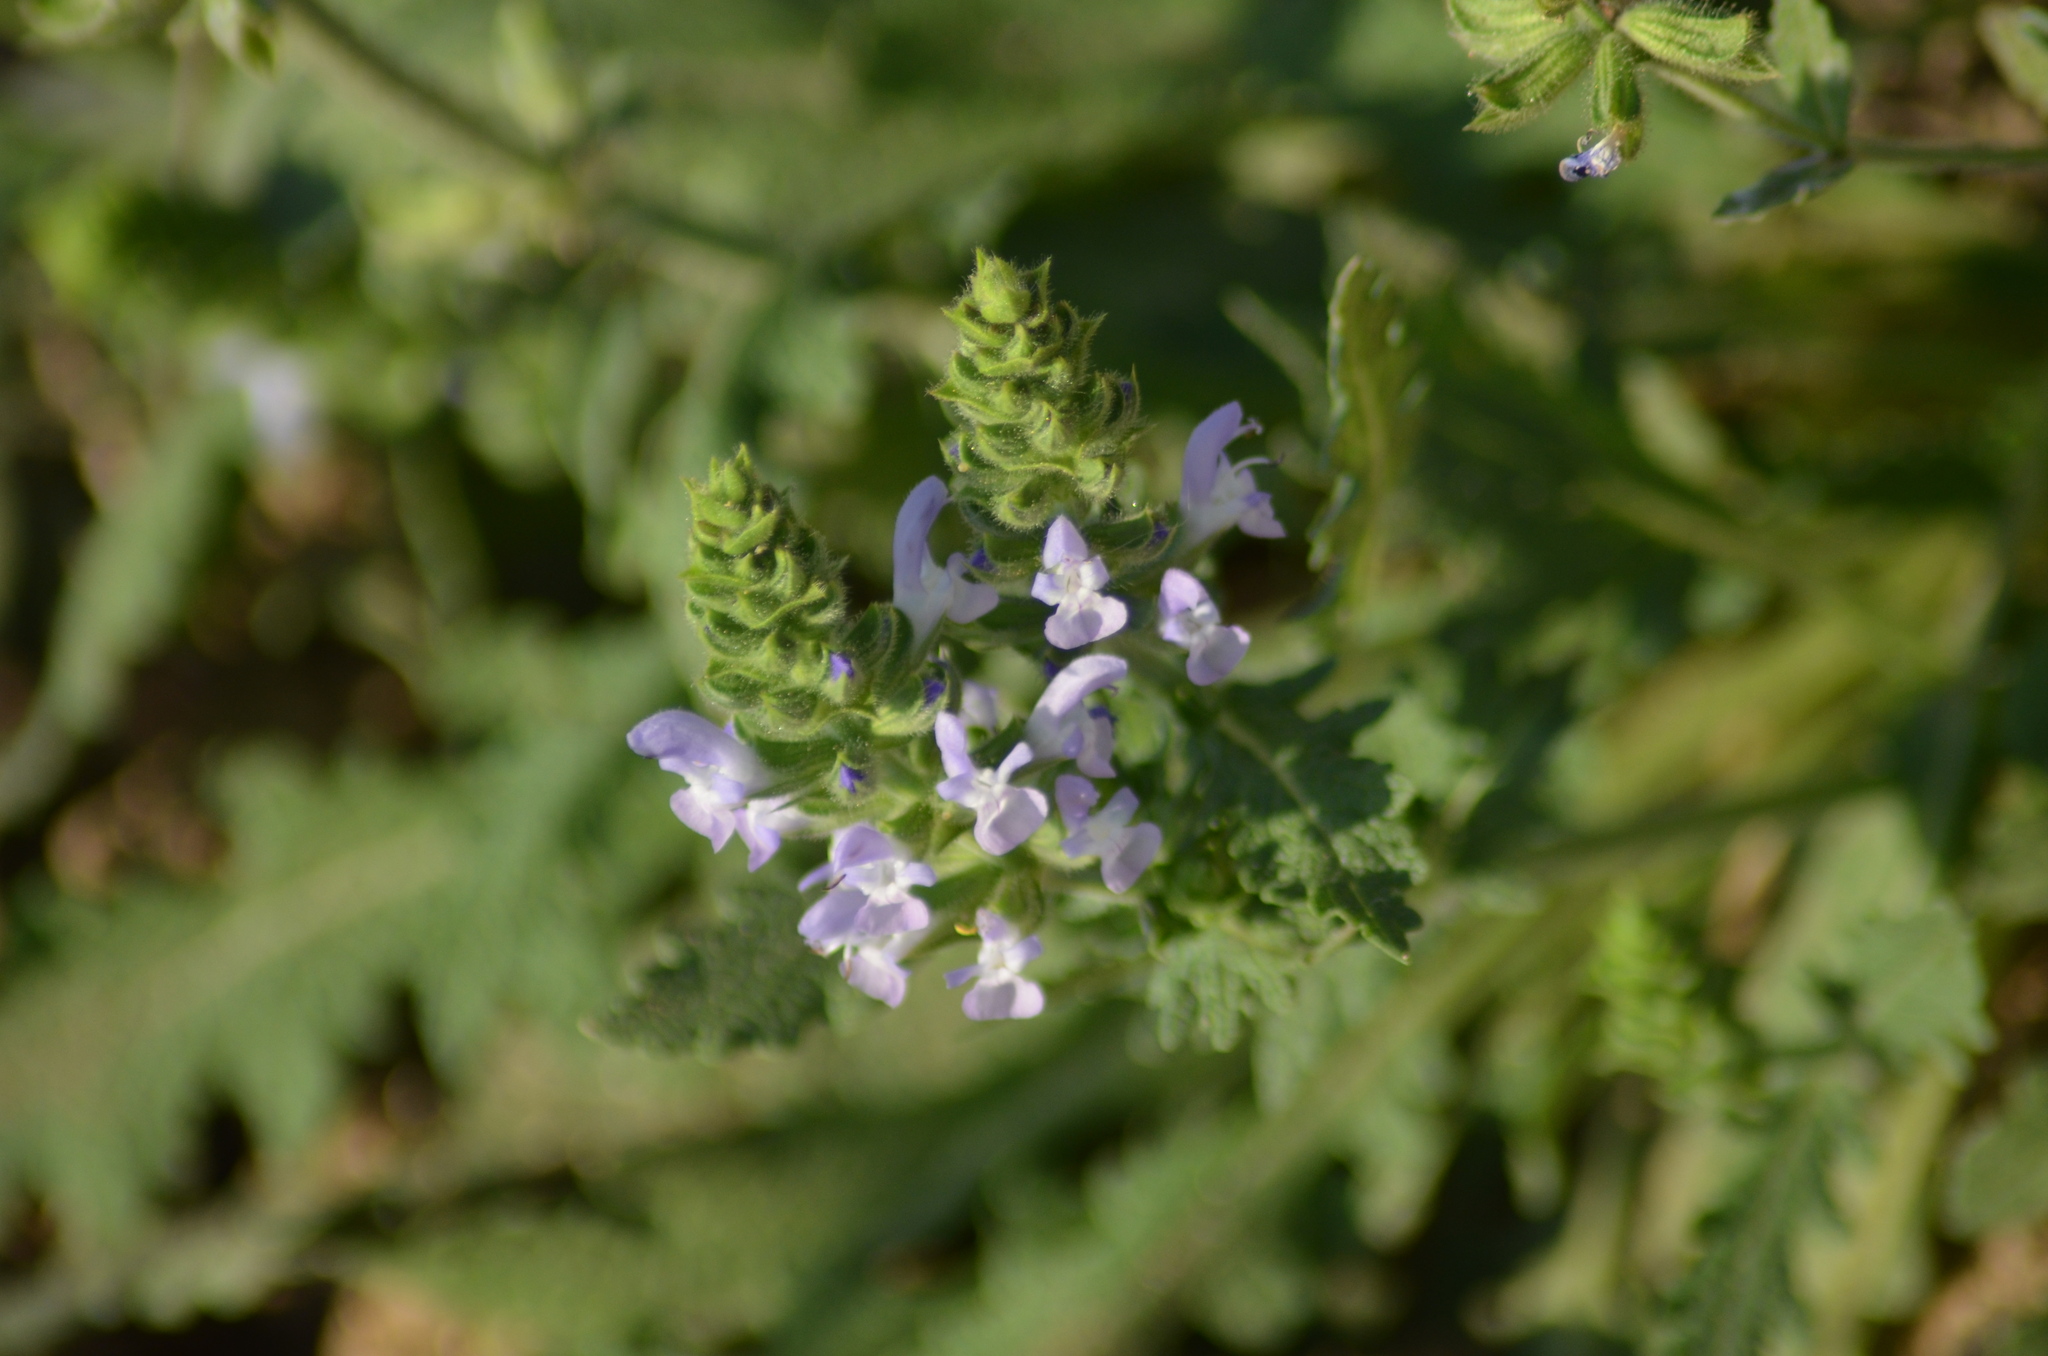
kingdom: Plantae
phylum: Tracheophyta
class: Magnoliopsida
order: Lamiales
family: Lamiaceae
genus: Salvia
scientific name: Salvia verbenaca
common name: Wild clary
